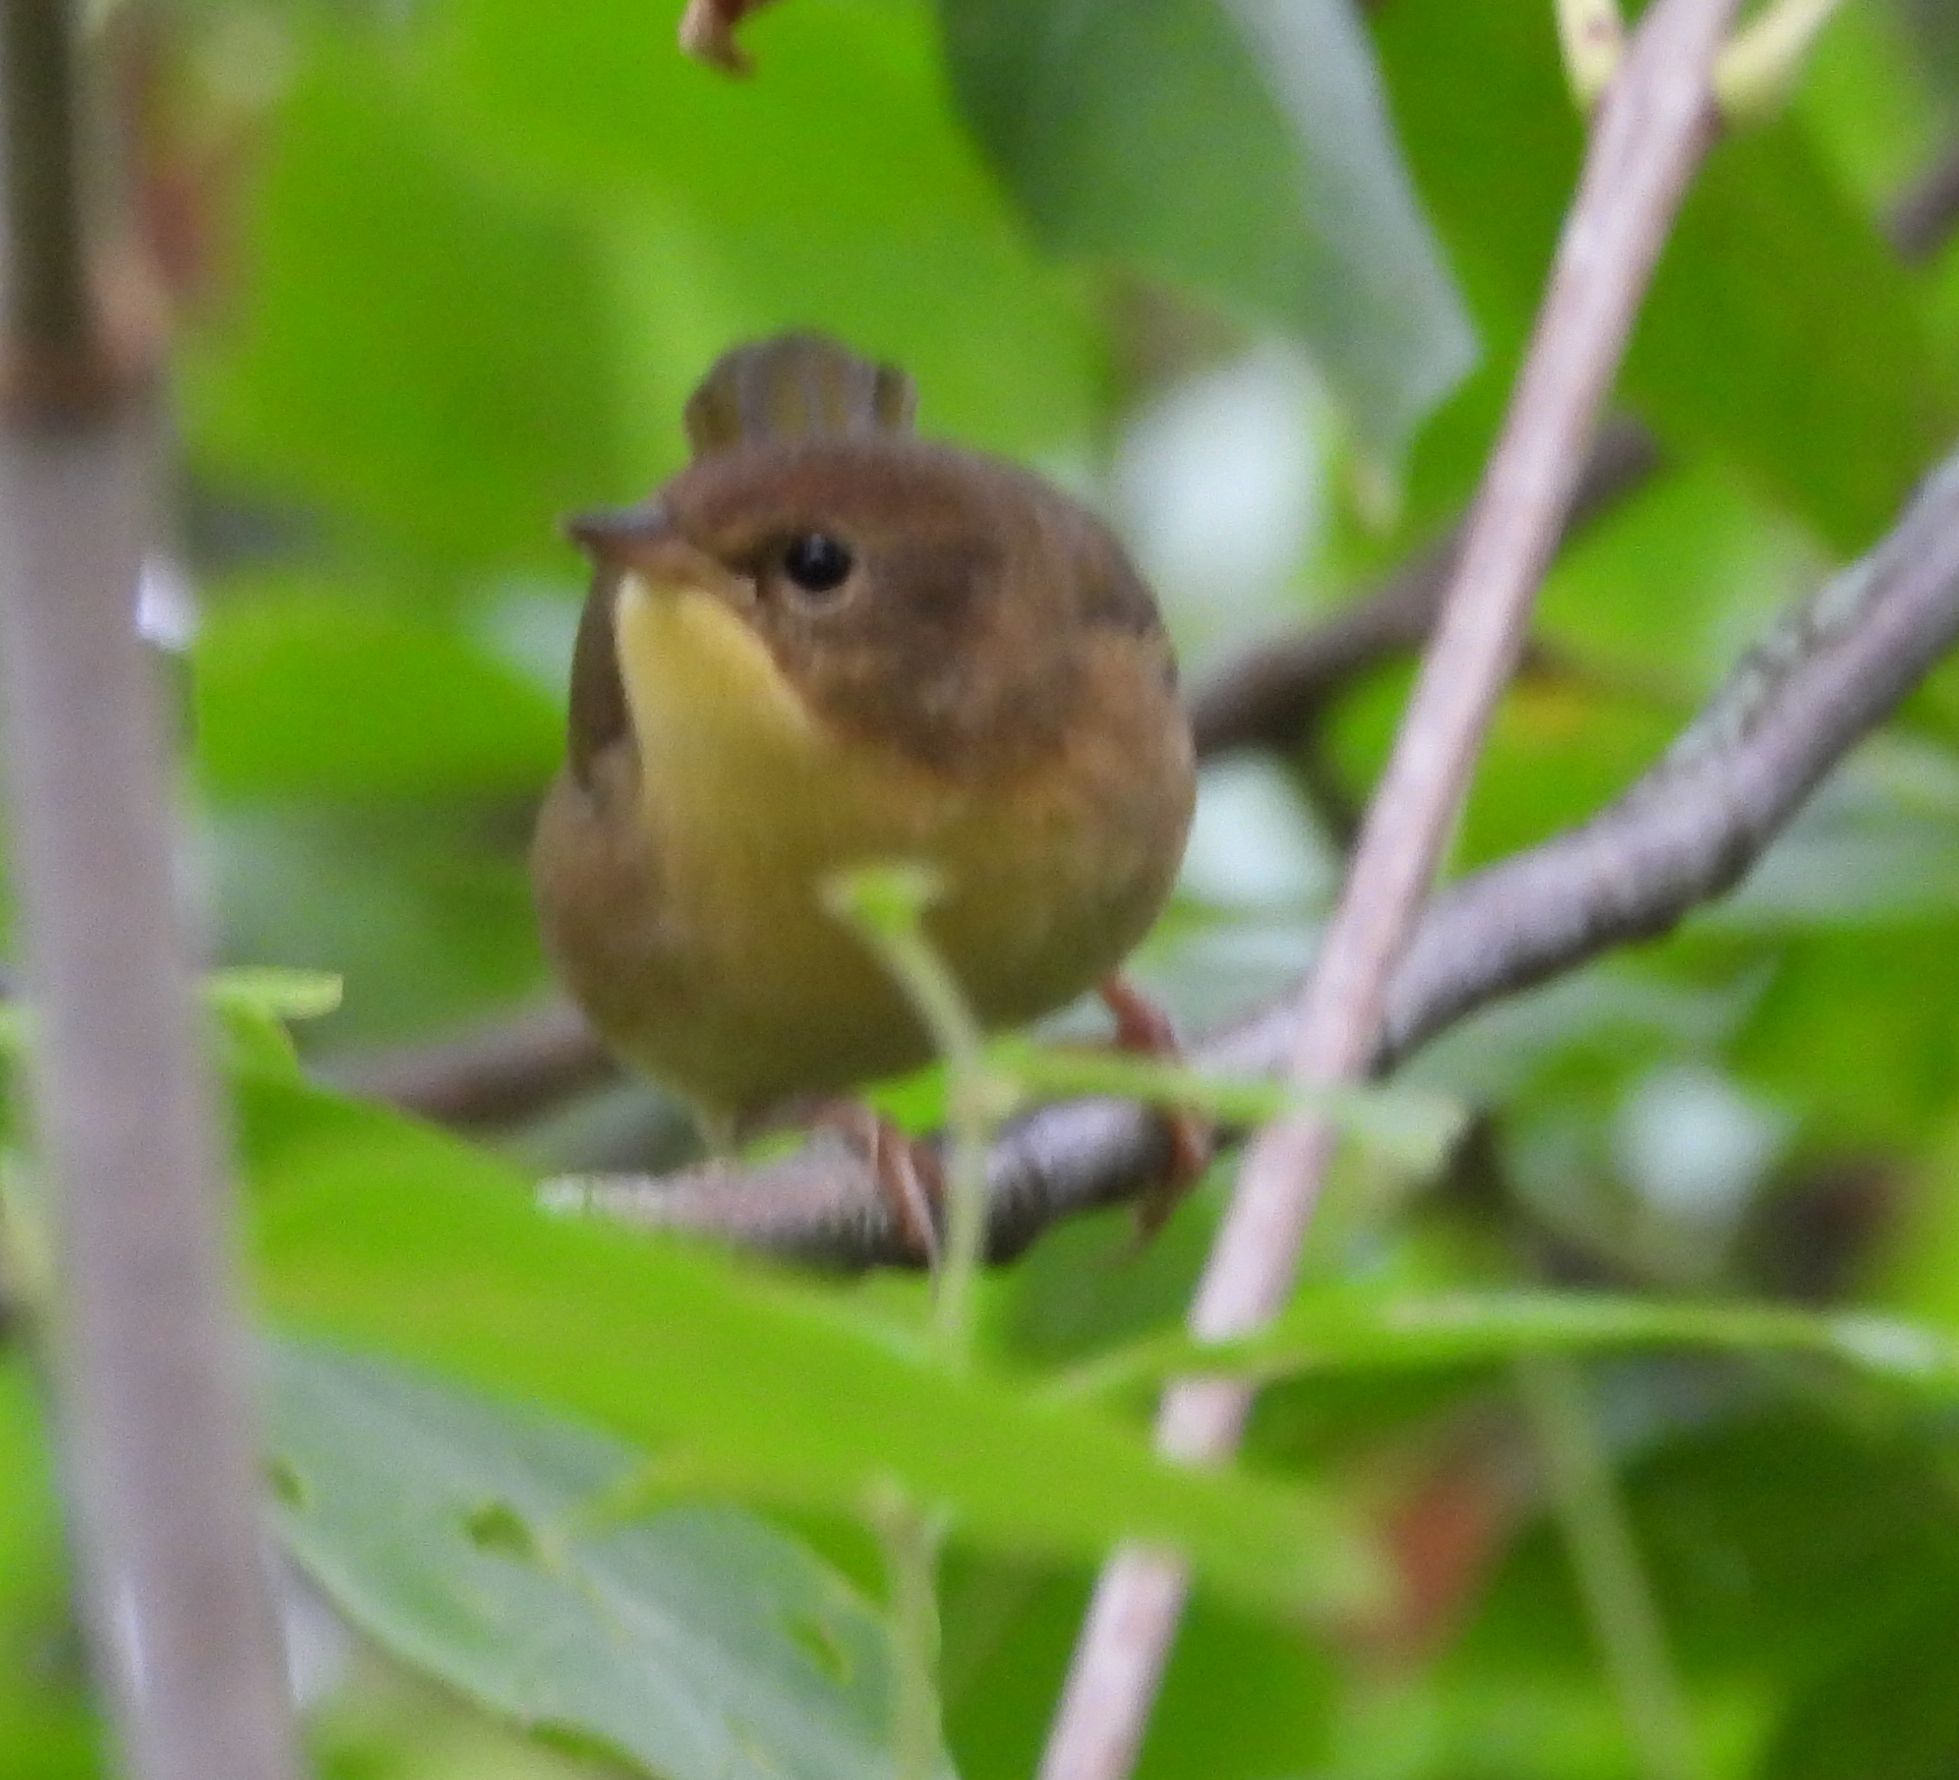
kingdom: Animalia
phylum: Chordata
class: Aves
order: Passeriformes
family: Parulidae
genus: Geothlypis
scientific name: Geothlypis trichas
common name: Common yellowthroat
